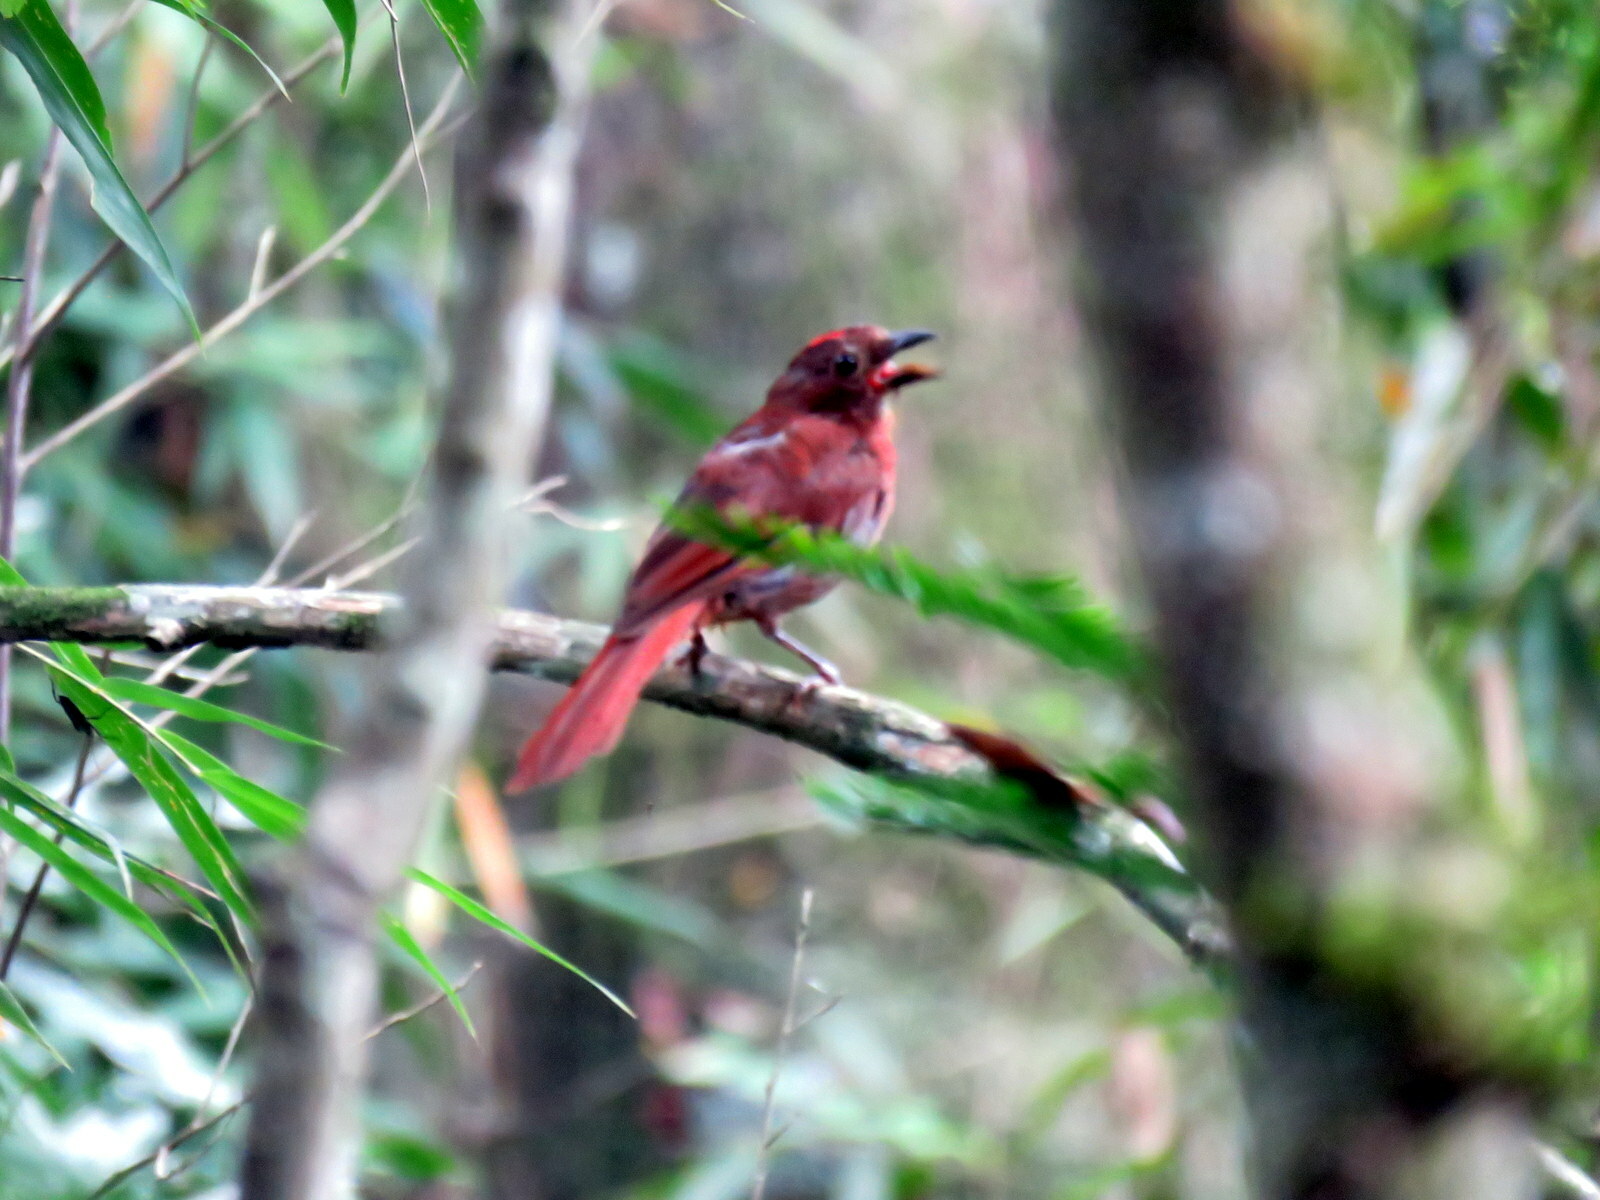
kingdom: Animalia
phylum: Chordata
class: Aves
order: Passeriformes
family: Cardinalidae
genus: Habia
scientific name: Habia rubica
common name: Red-crowned ant-tanager
